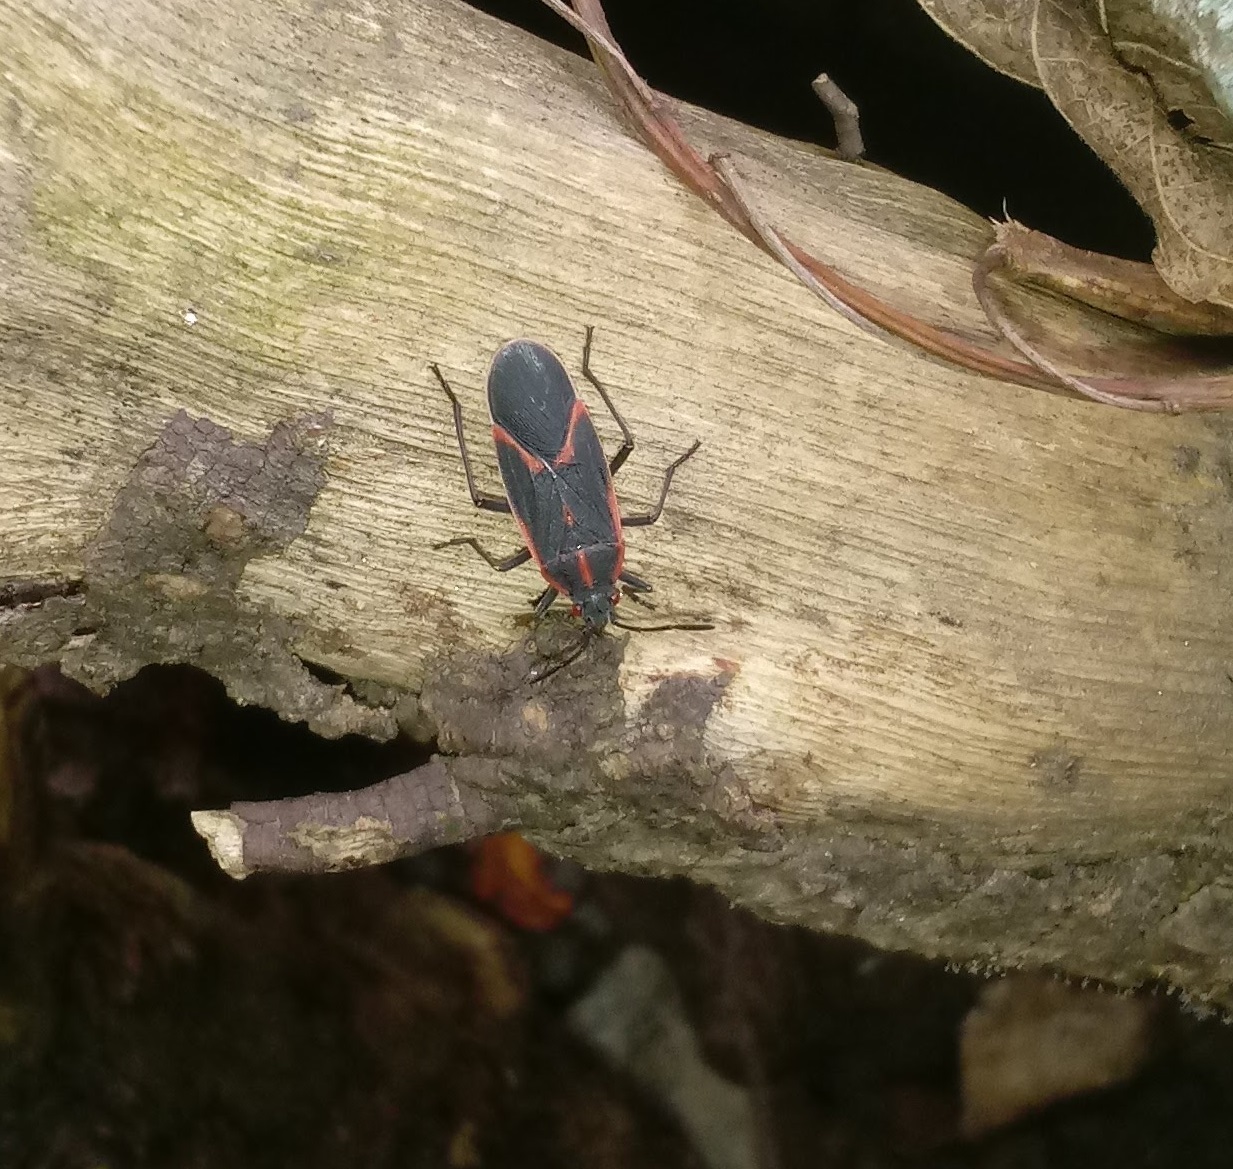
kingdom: Animalia
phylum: Arthropoda
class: Insecta
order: Hemiptera
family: Rhopalidae
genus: Boisea
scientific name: Boisea trivittata
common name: Boxelder bug
